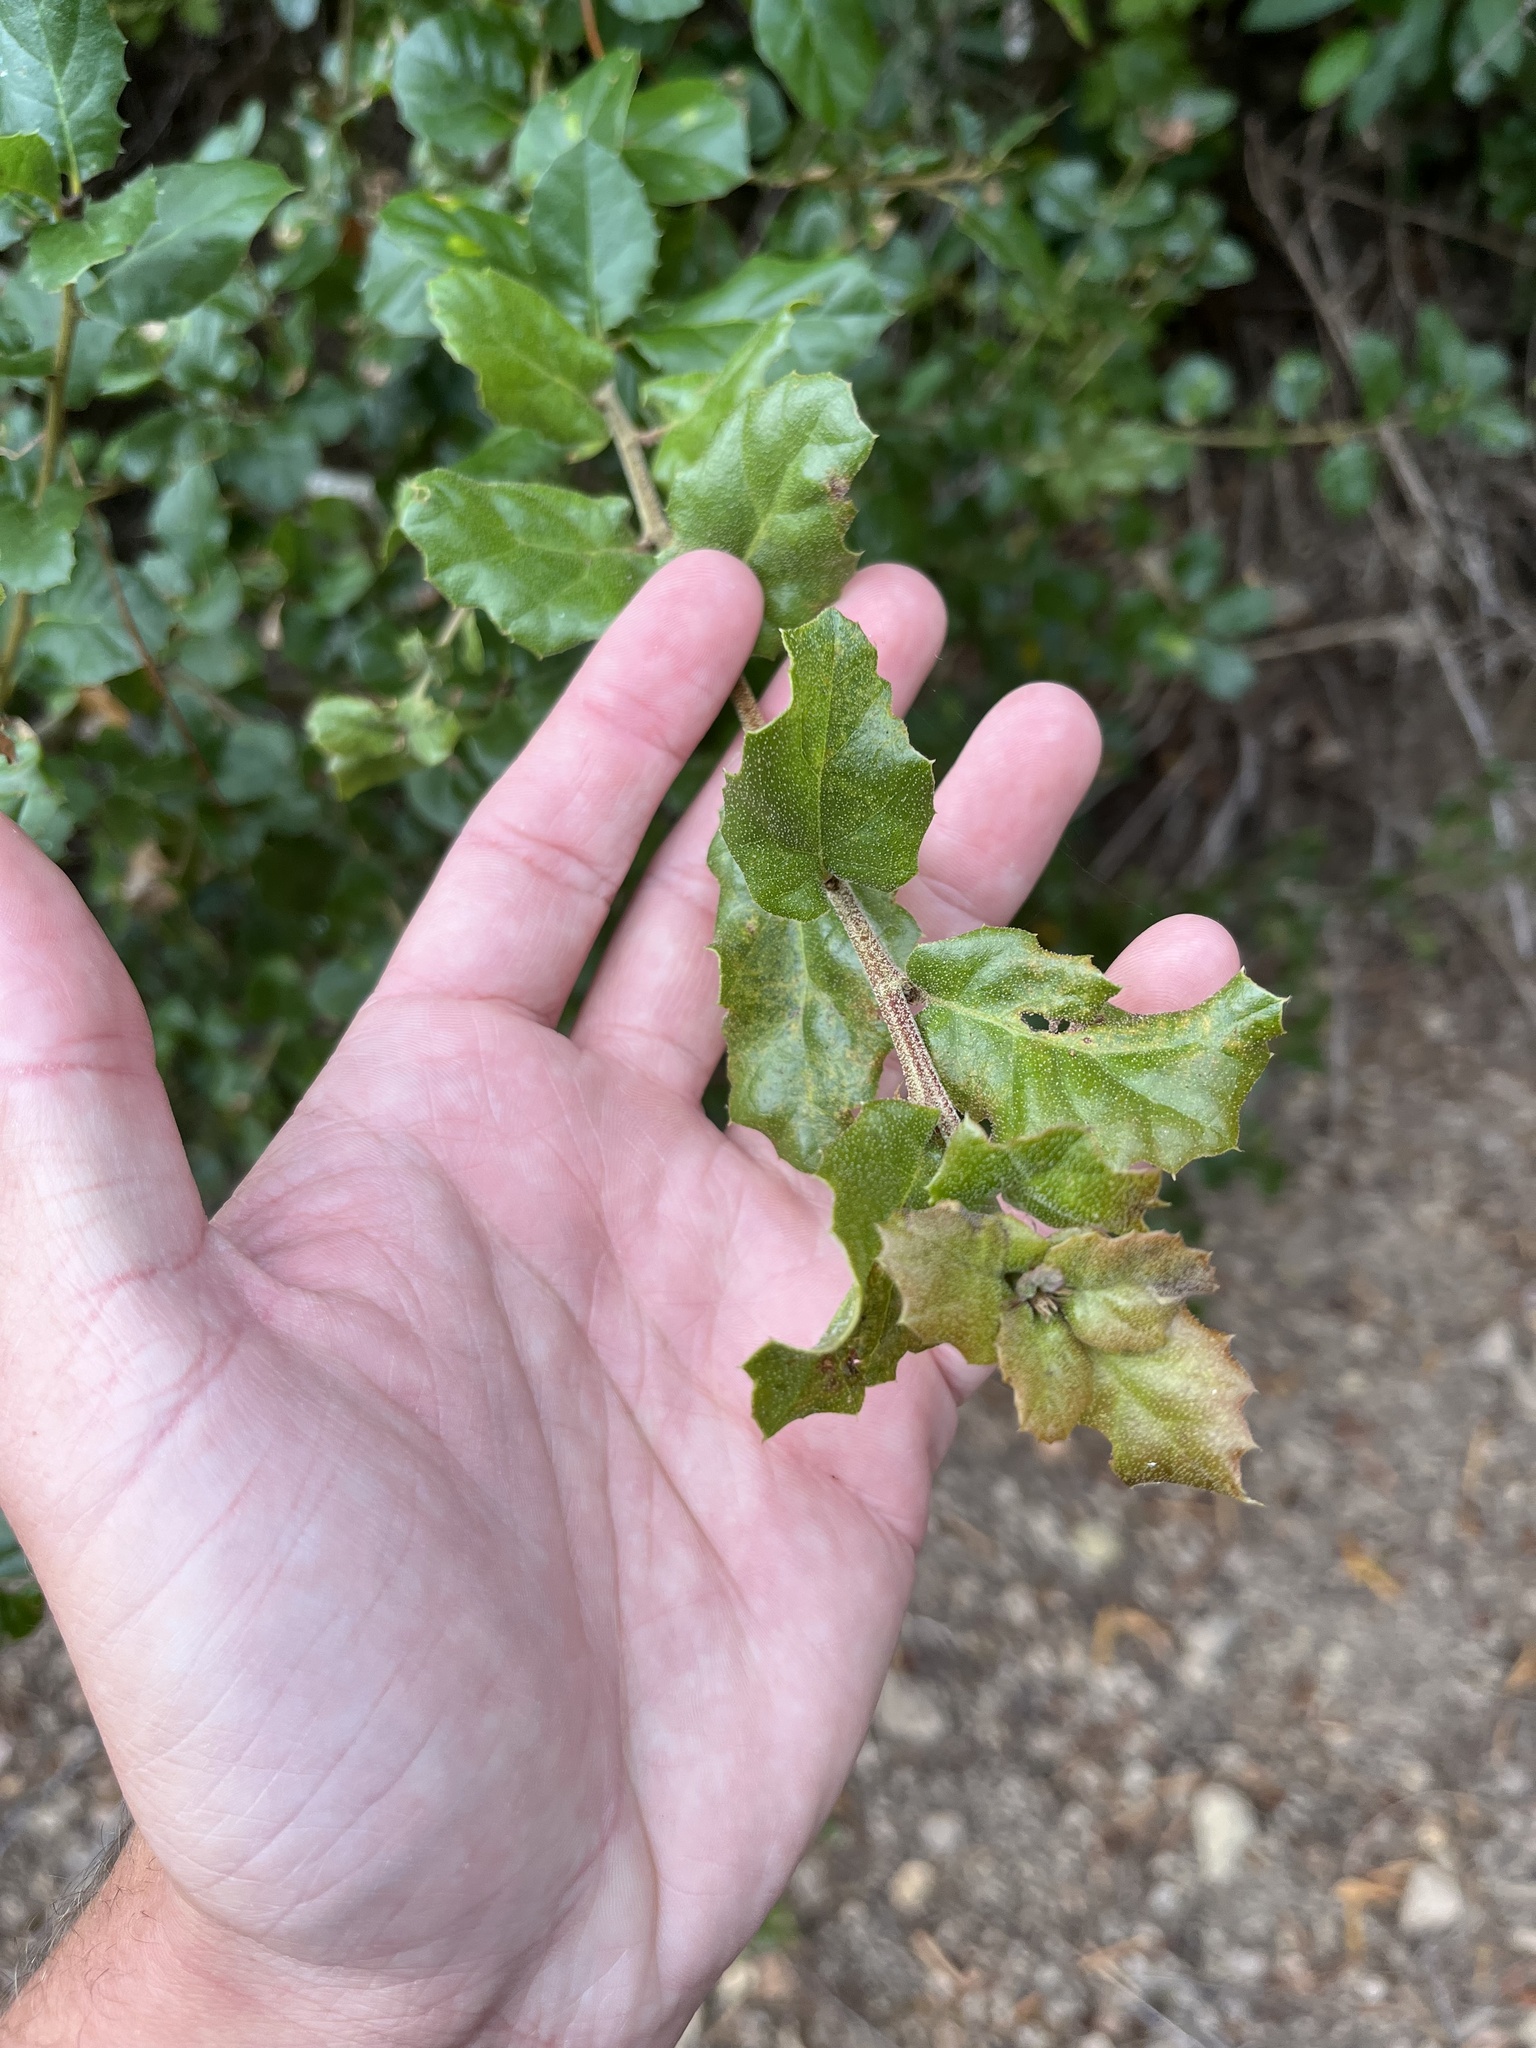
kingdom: Plantae
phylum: Tracheophyta
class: Magnoliopsida
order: Fagales
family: Fagaceae
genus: Quercus
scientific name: Quercus agrifolia
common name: California live oak
